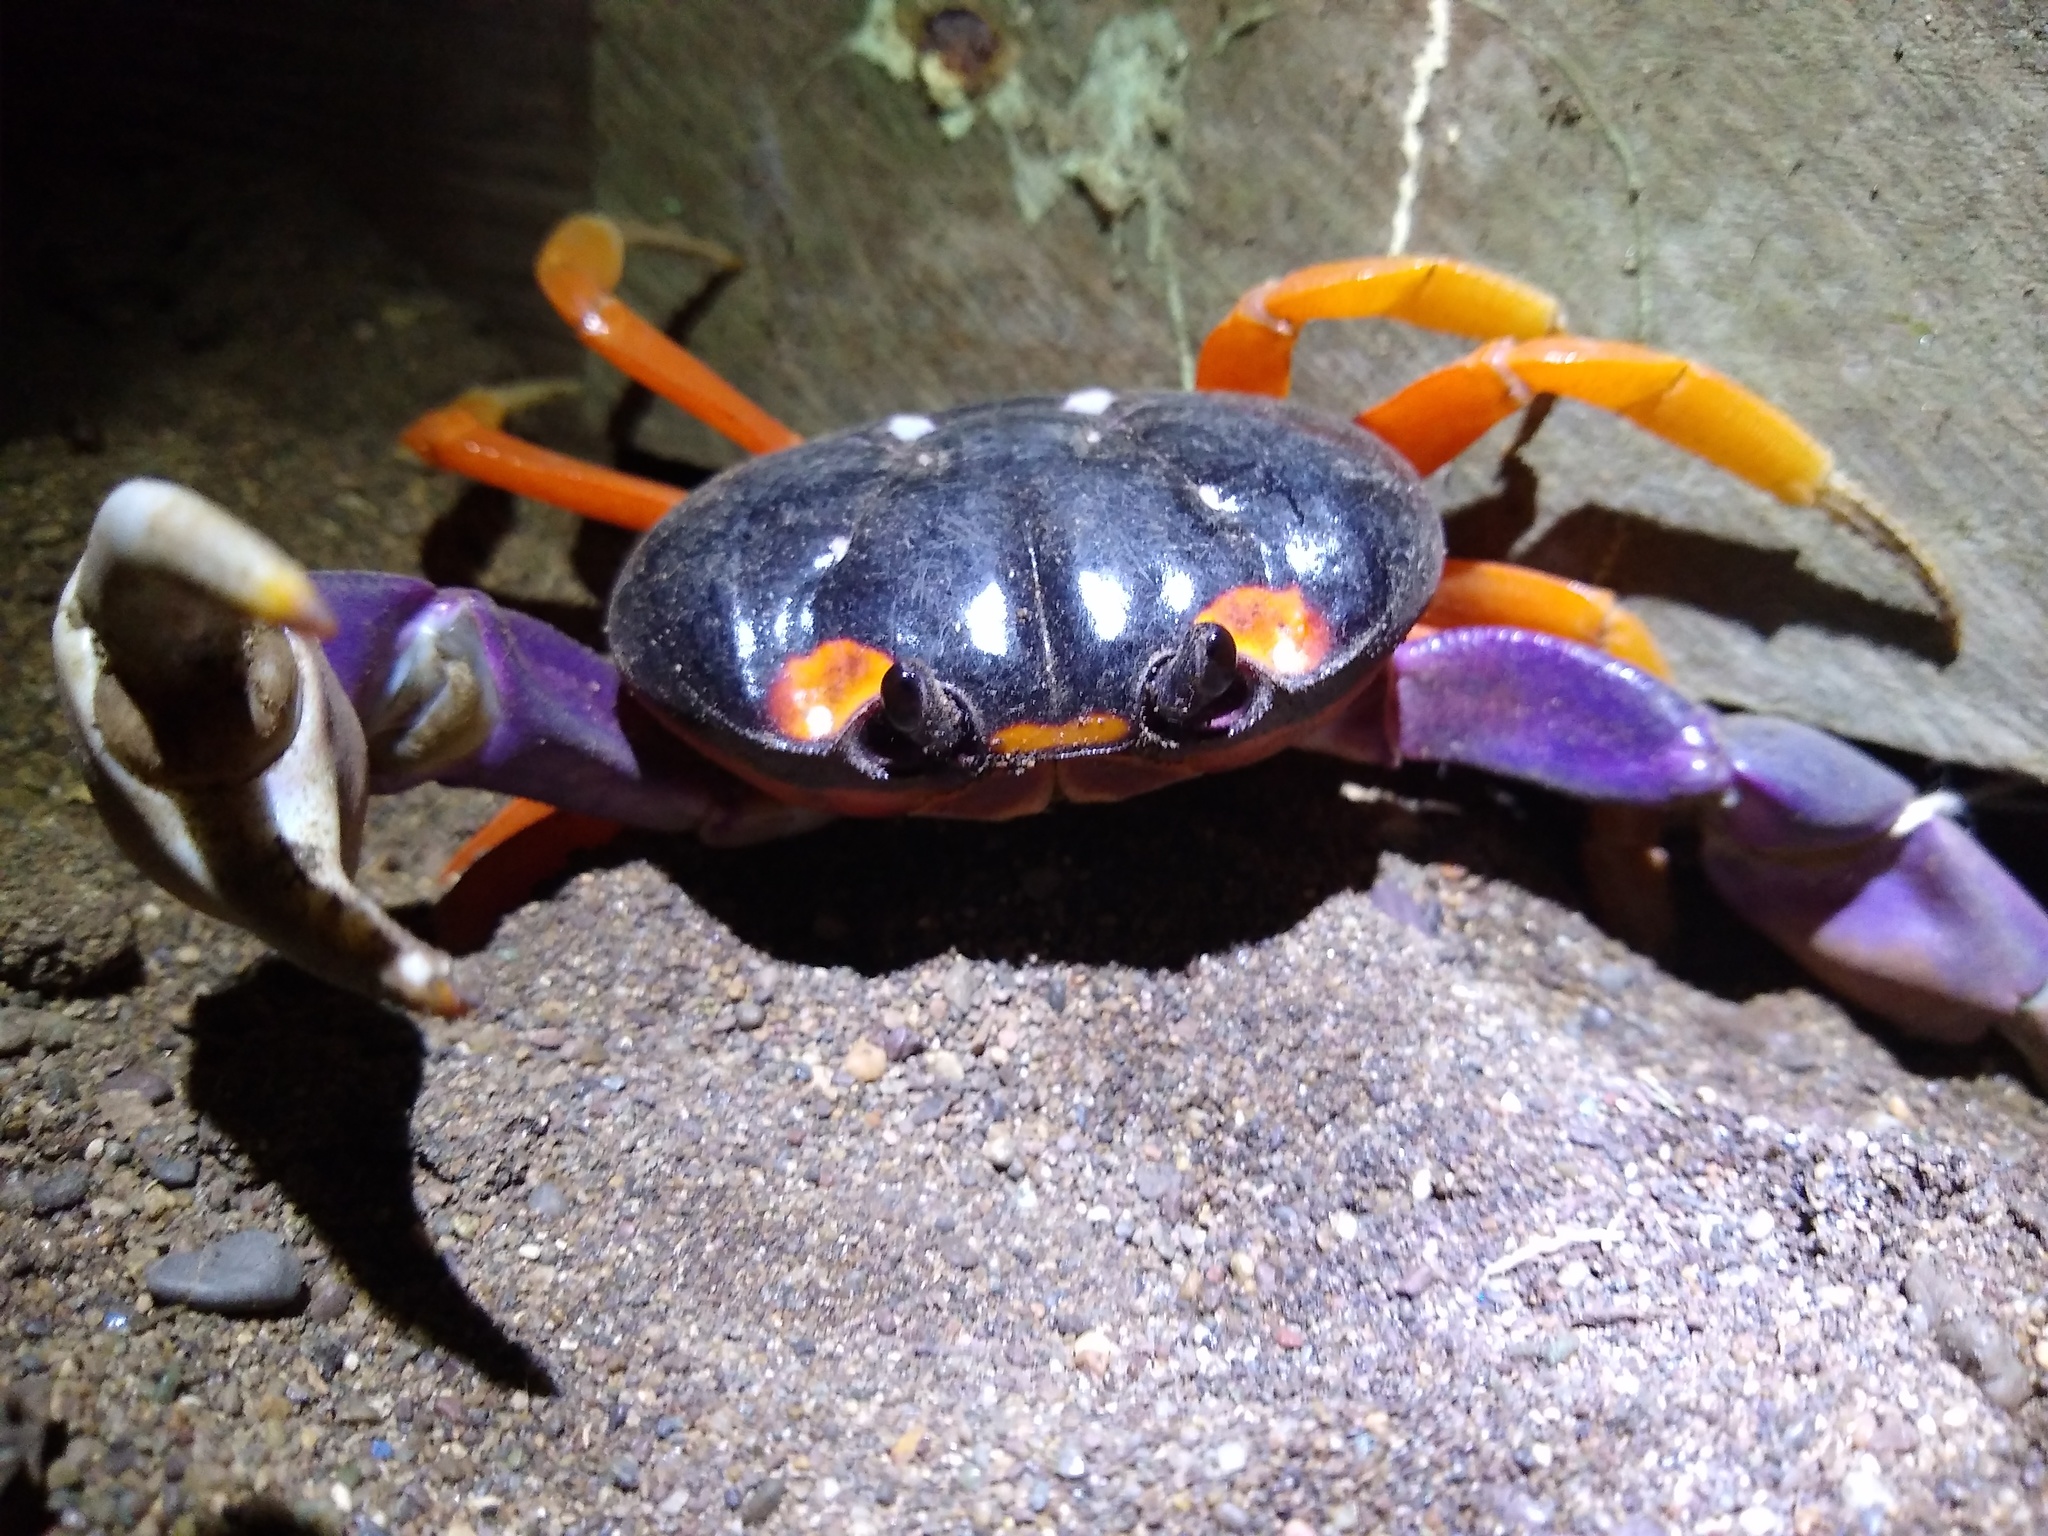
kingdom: Animalia
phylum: Arthropoda
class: Malacostraca
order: Decapoda
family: Gecarcinidae
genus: Gecarcinus
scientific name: Gecarcinus quadratus
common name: Halloween crab
